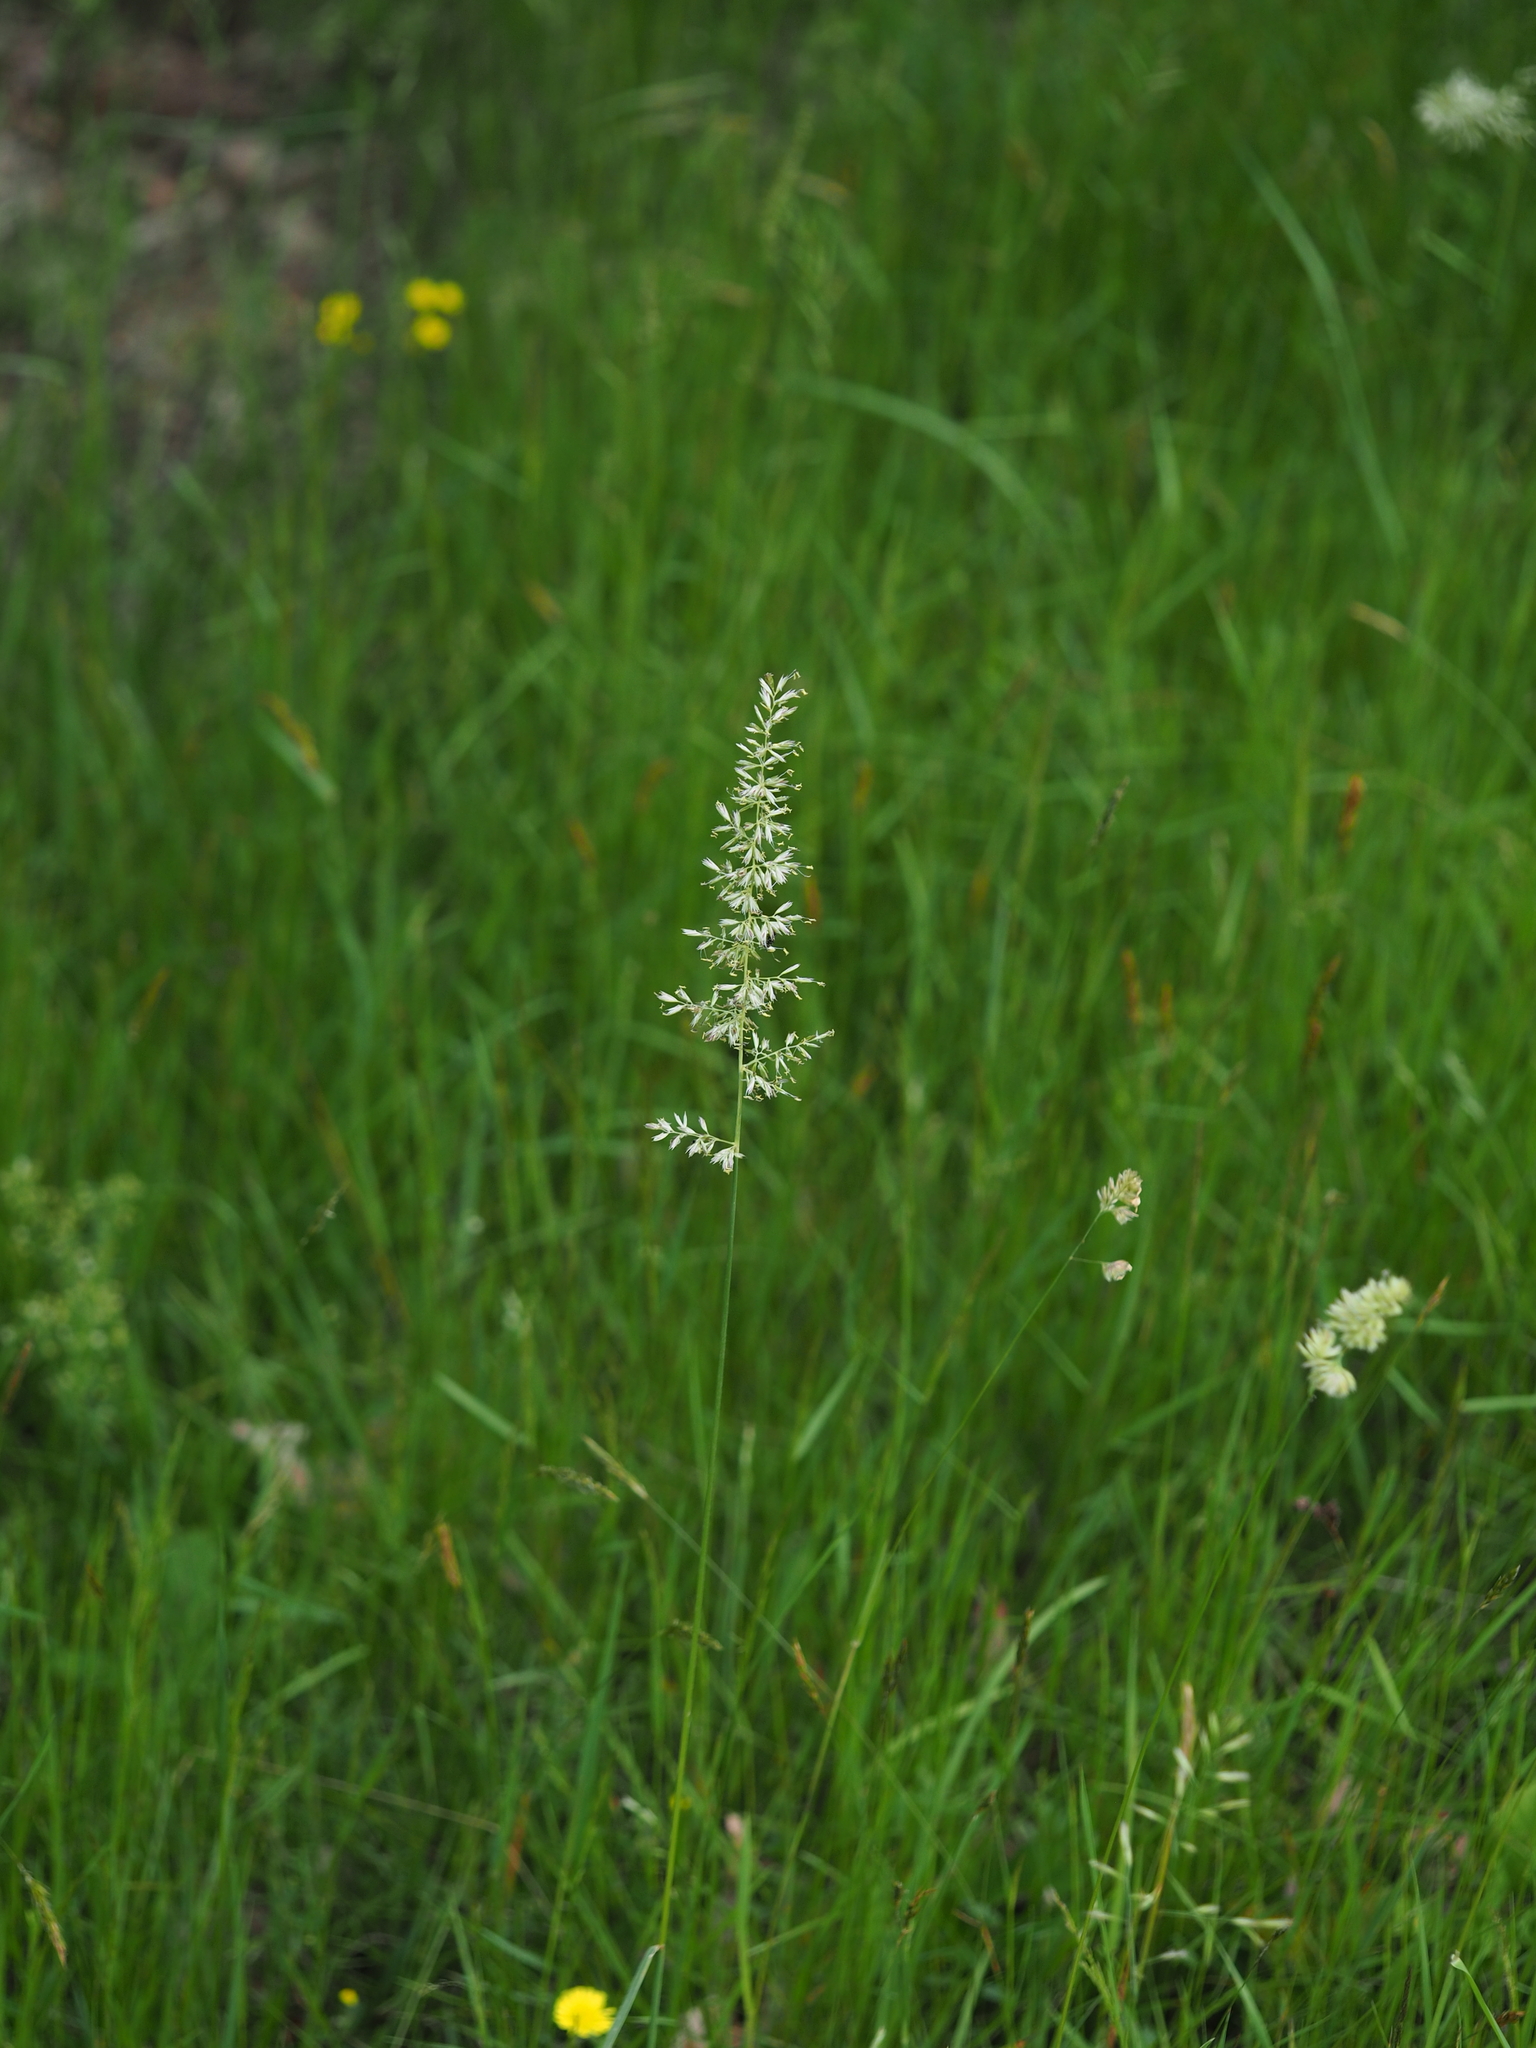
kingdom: Plantae
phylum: Tracheophyta
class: Liliopsida
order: Poales
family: Poaceae
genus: Koeleria
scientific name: Koeleria macrantha
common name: Crested hair-grass
